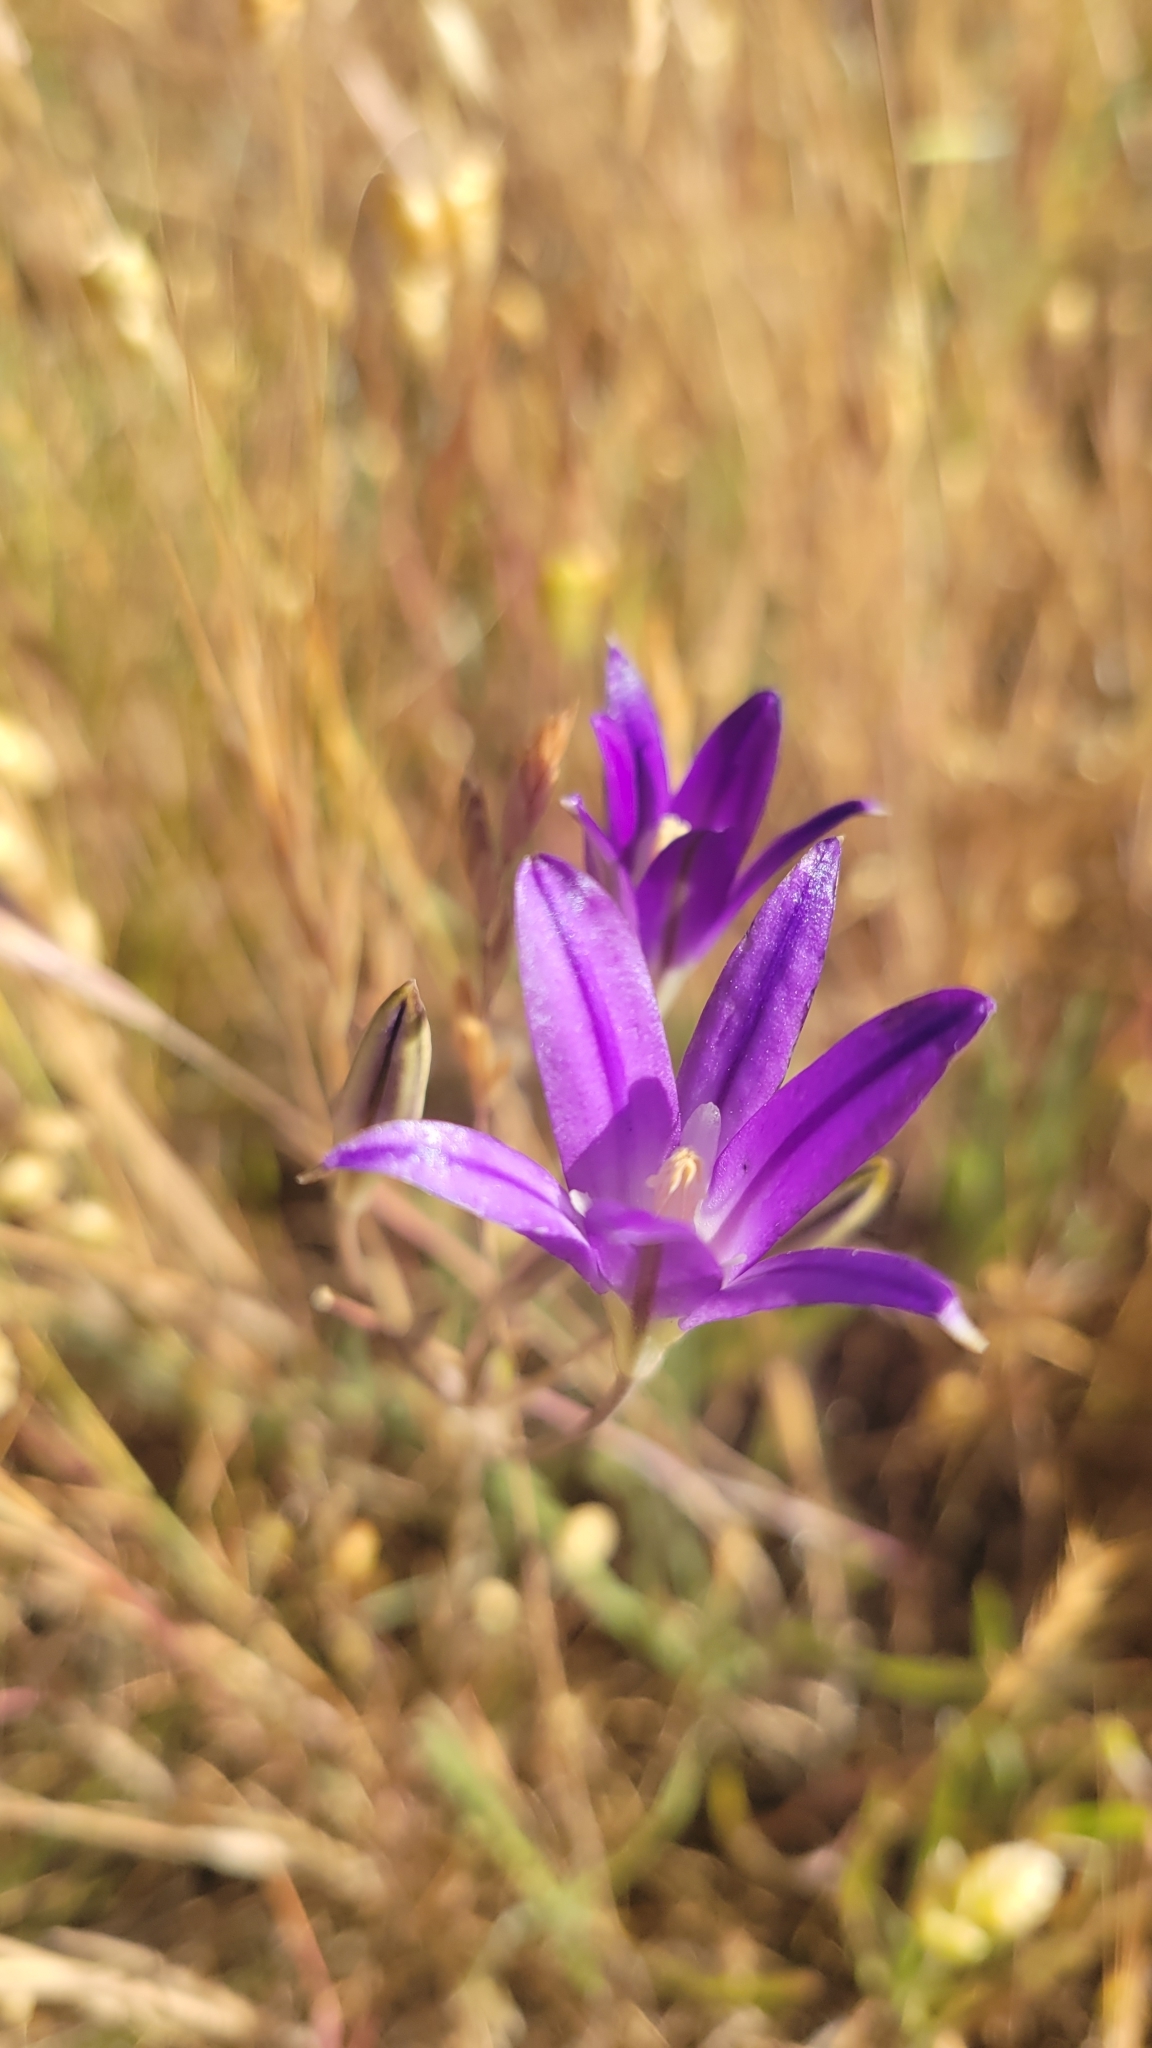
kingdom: Plantae
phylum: Tracheophyta
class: Liliopsida
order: Asparagales
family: Asparagaceae
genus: Brodiaea
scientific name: Brodiaea elegans
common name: Elegant cluster-lily
